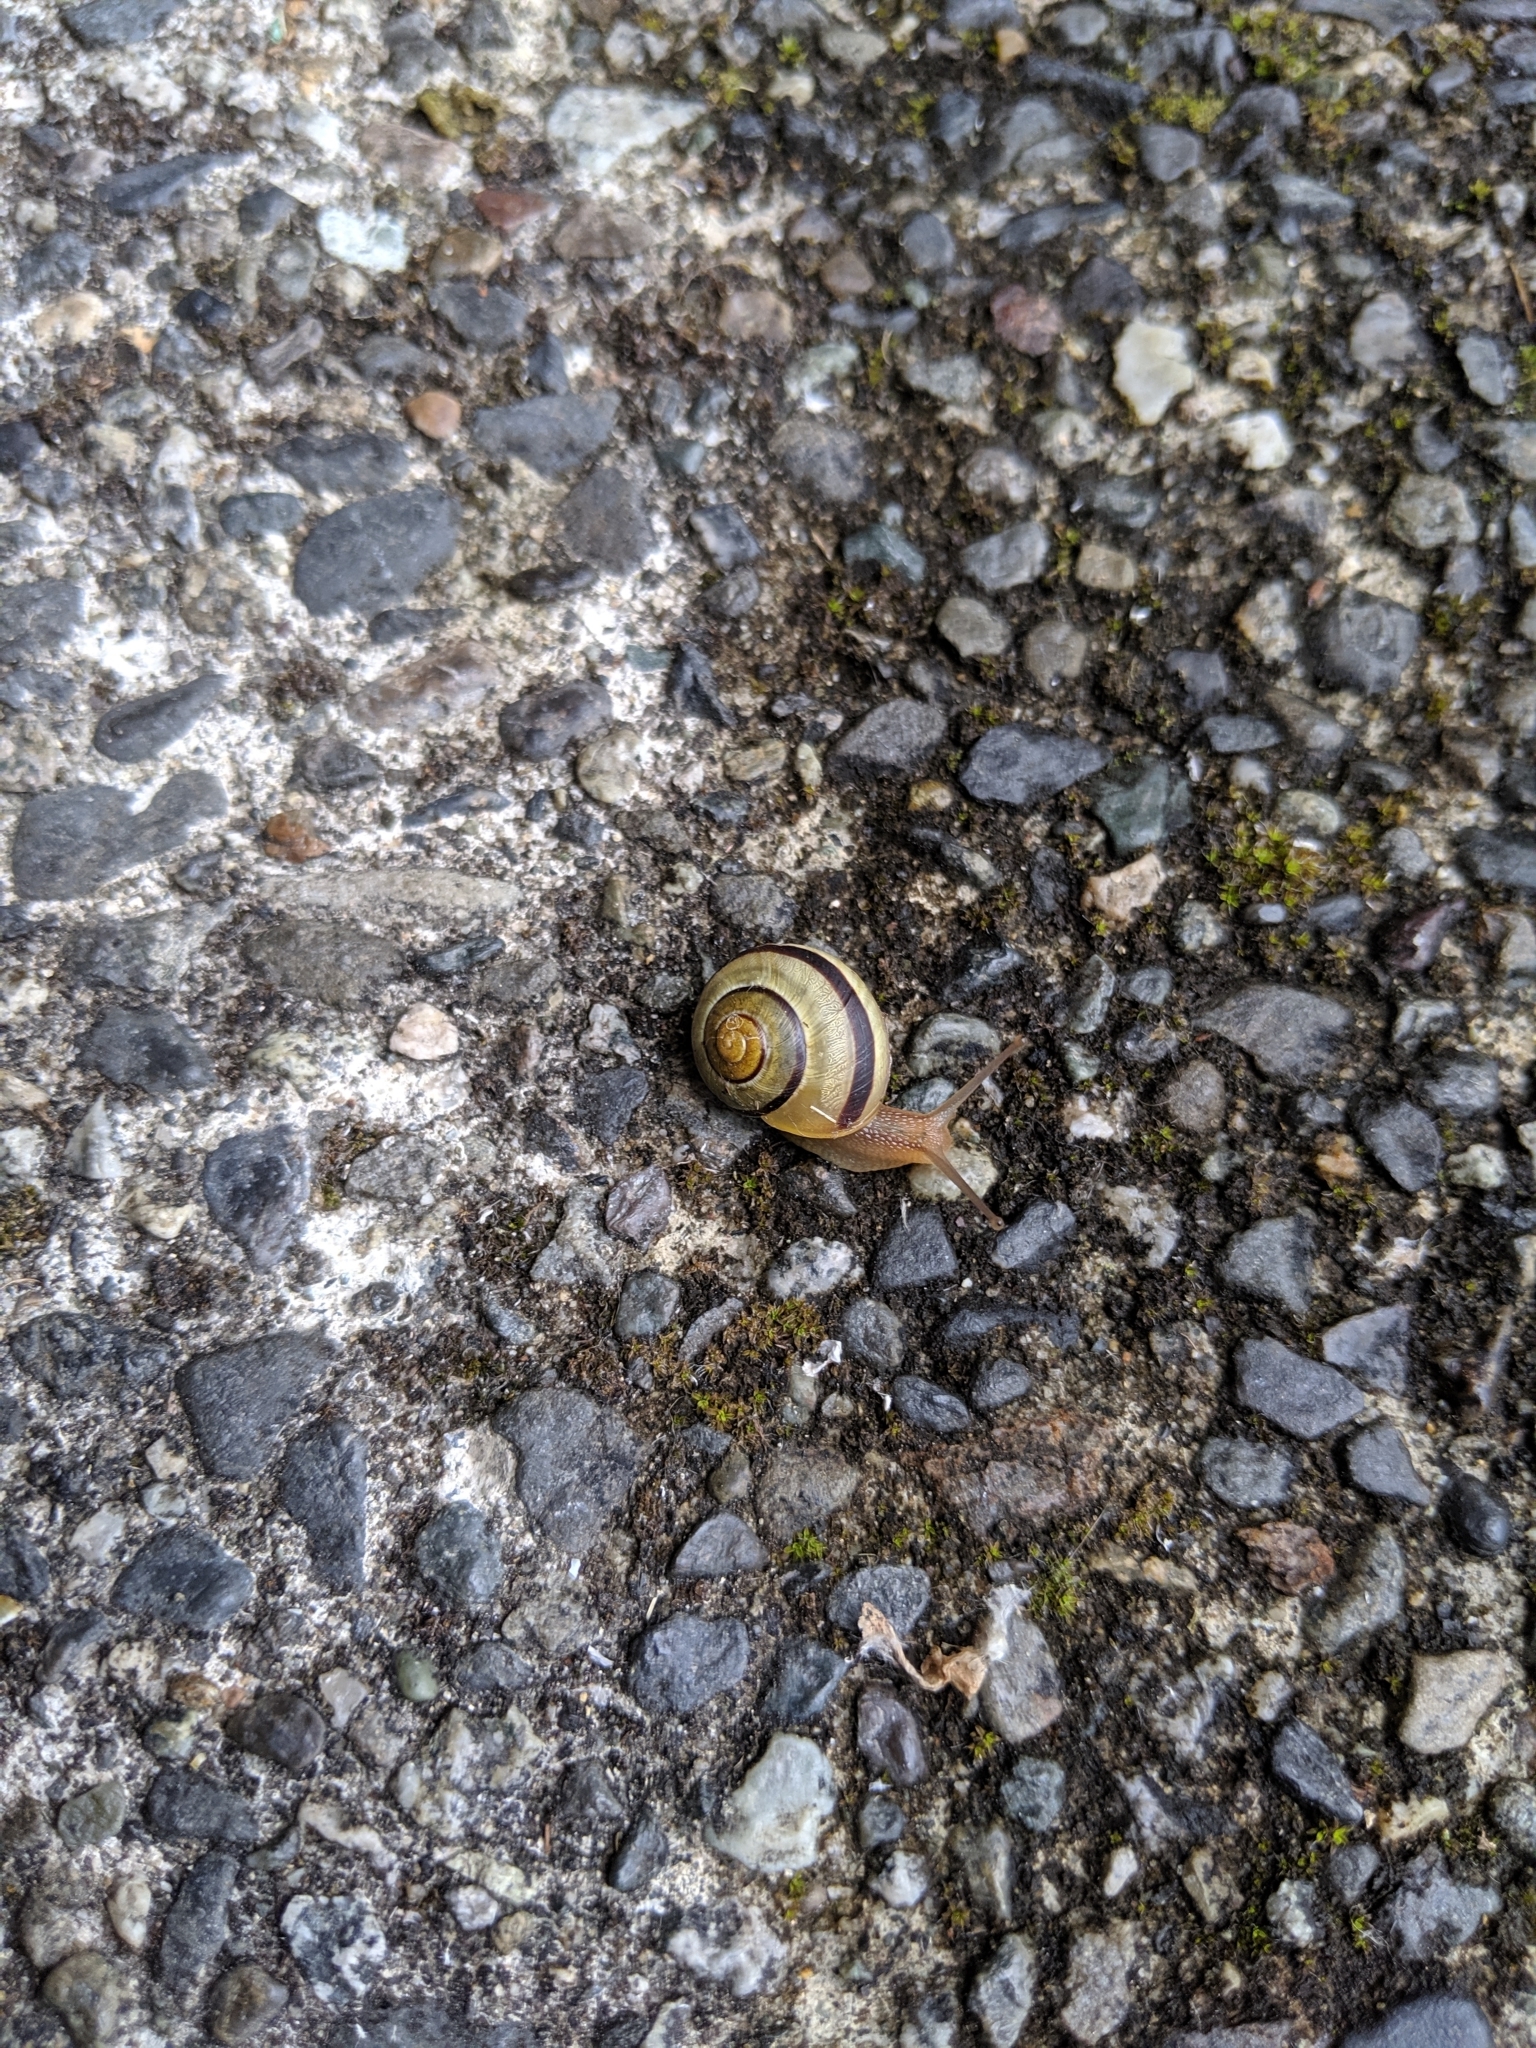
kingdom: Animalia
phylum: Mollusca
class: Gastropoda
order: Stylommatophora
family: Helicidae
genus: Cepaea
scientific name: Cepaea nemoralis
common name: Grovesnail
